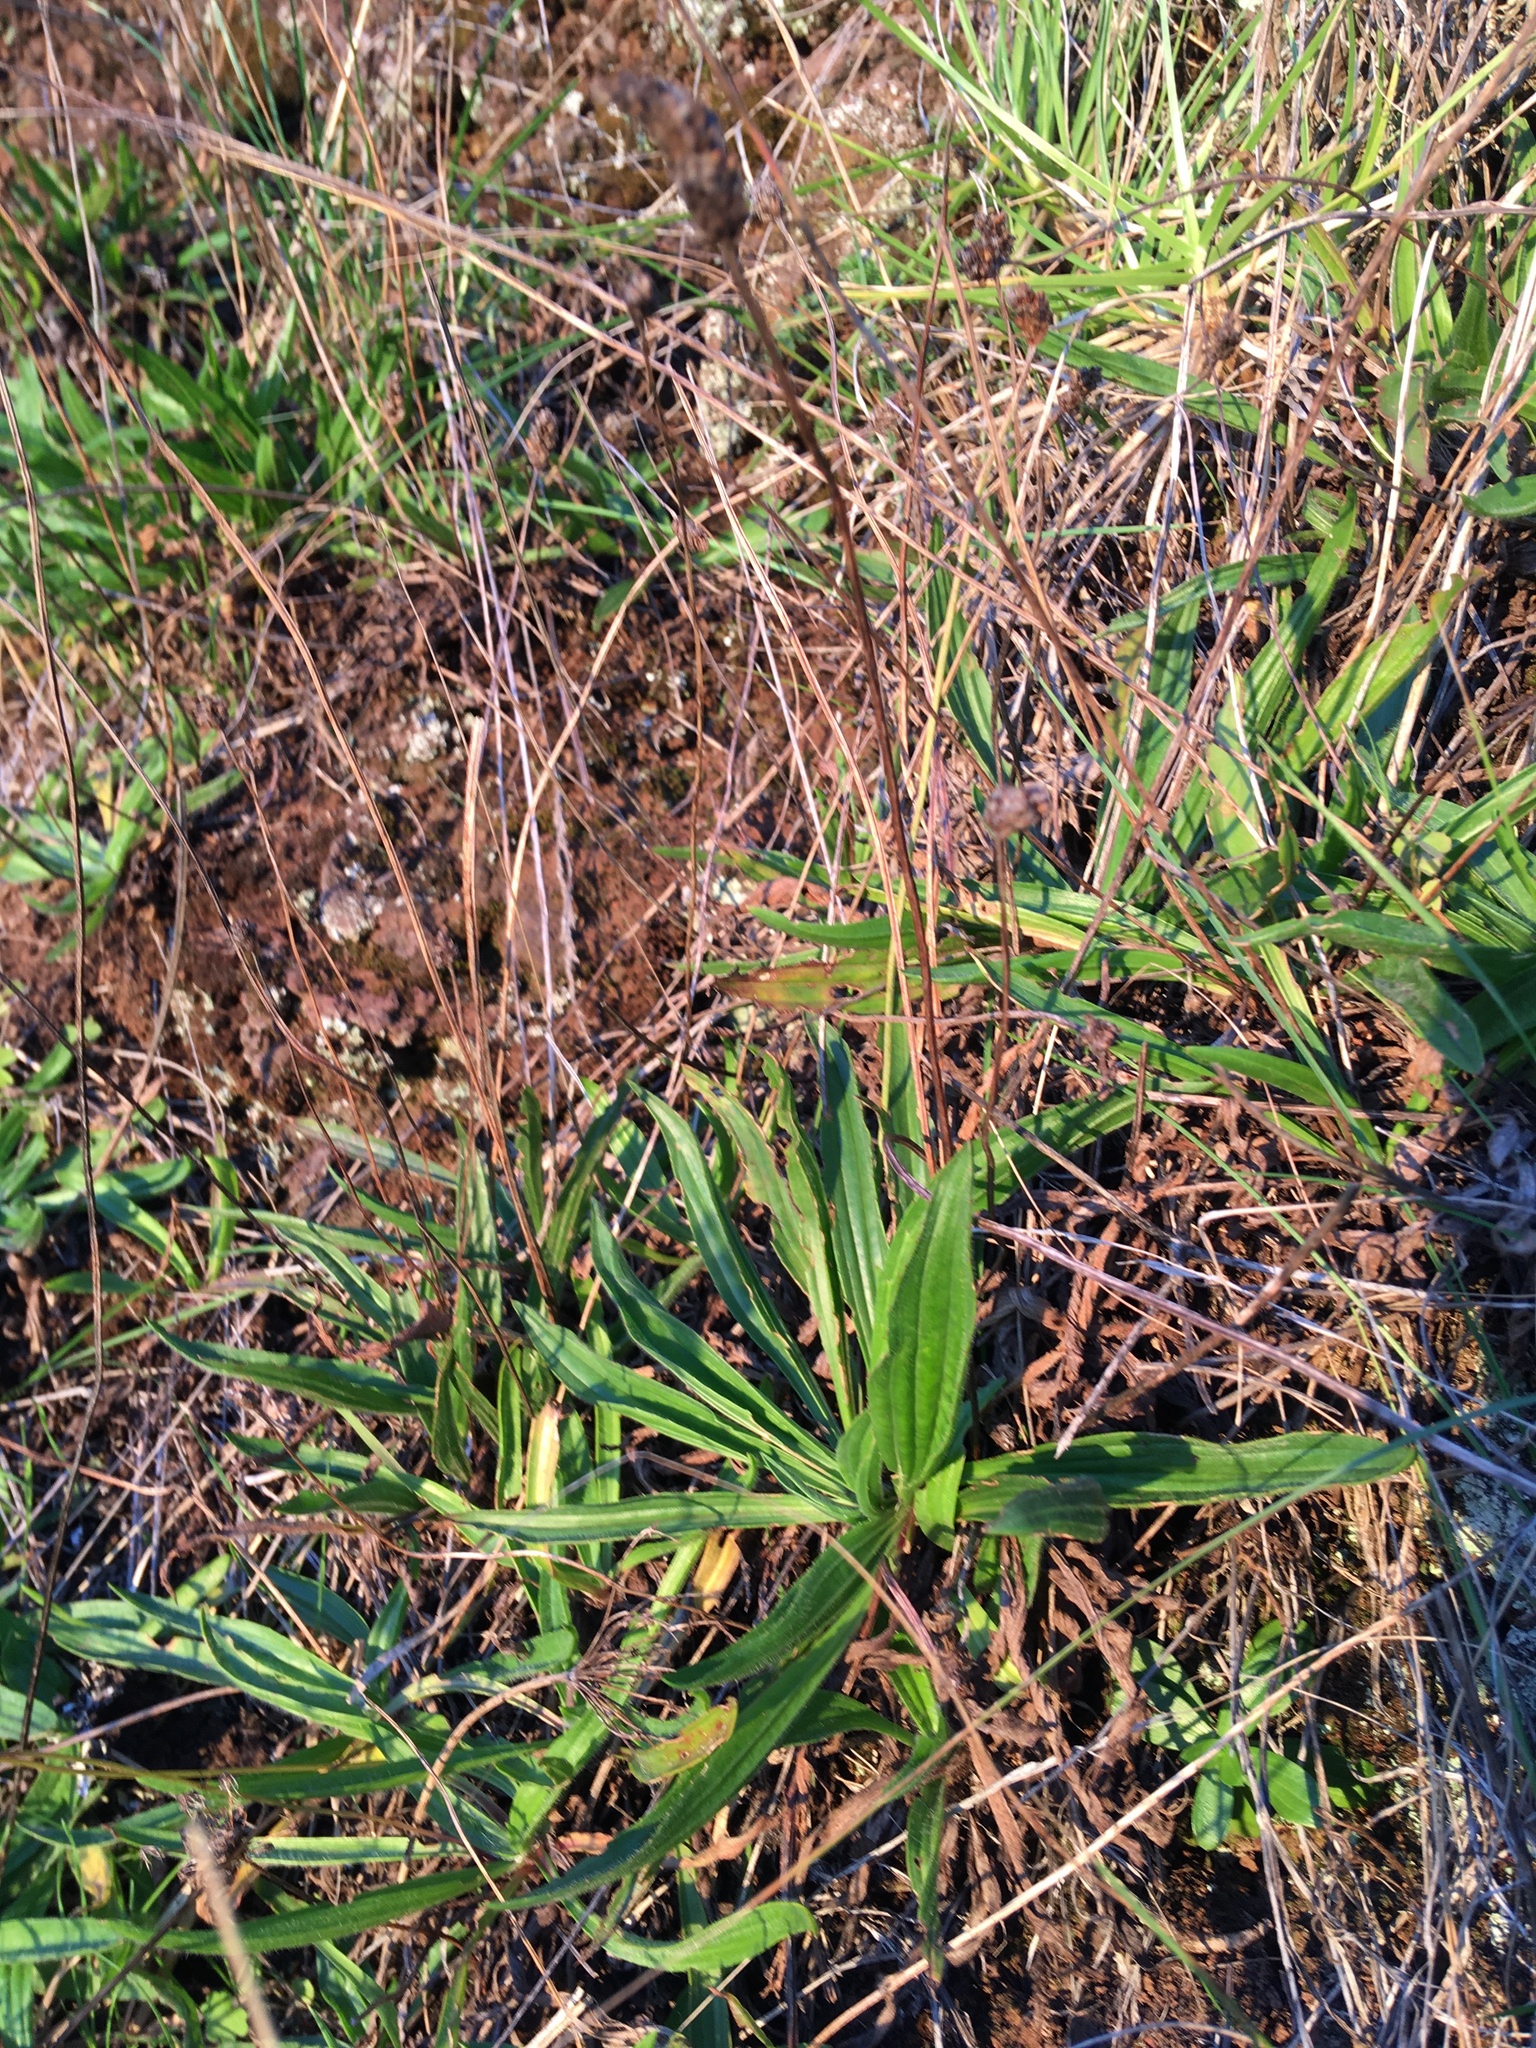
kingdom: Plantae
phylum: Tracheophyta
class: Magnoliopsida
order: Lamiales
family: Plantaginaceae
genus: Plantago
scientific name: Plantago lanceolata
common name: Ribwort plantain
